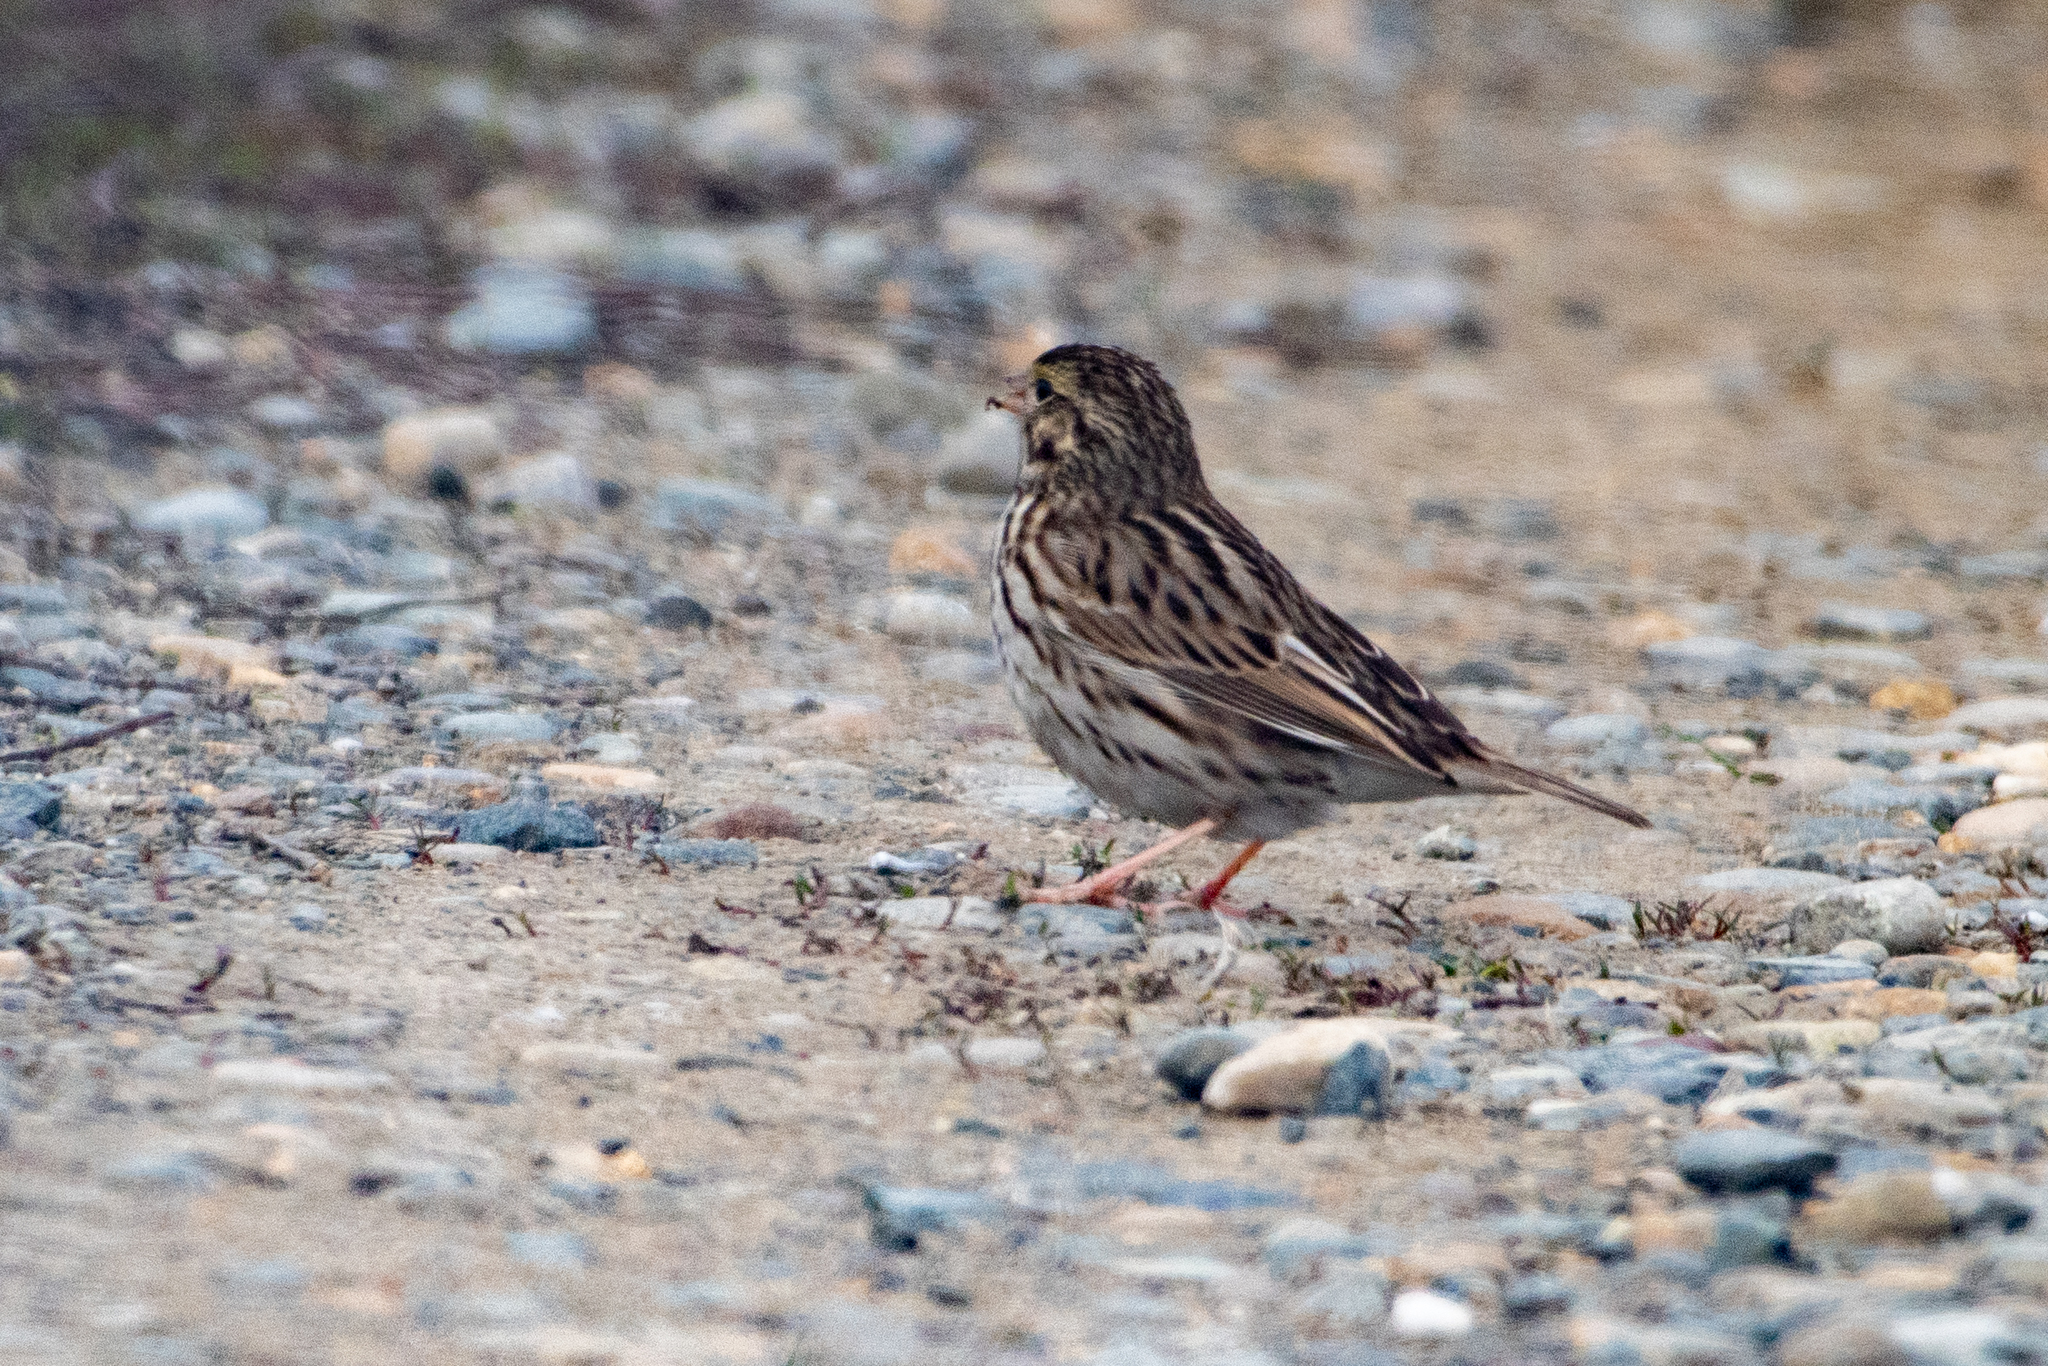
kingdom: Animalia
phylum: Chordata
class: Aves
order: Passeriformes
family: Passerellidae
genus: Passerculus
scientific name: Passerculus sandwichensis
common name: Savannah sparrow
